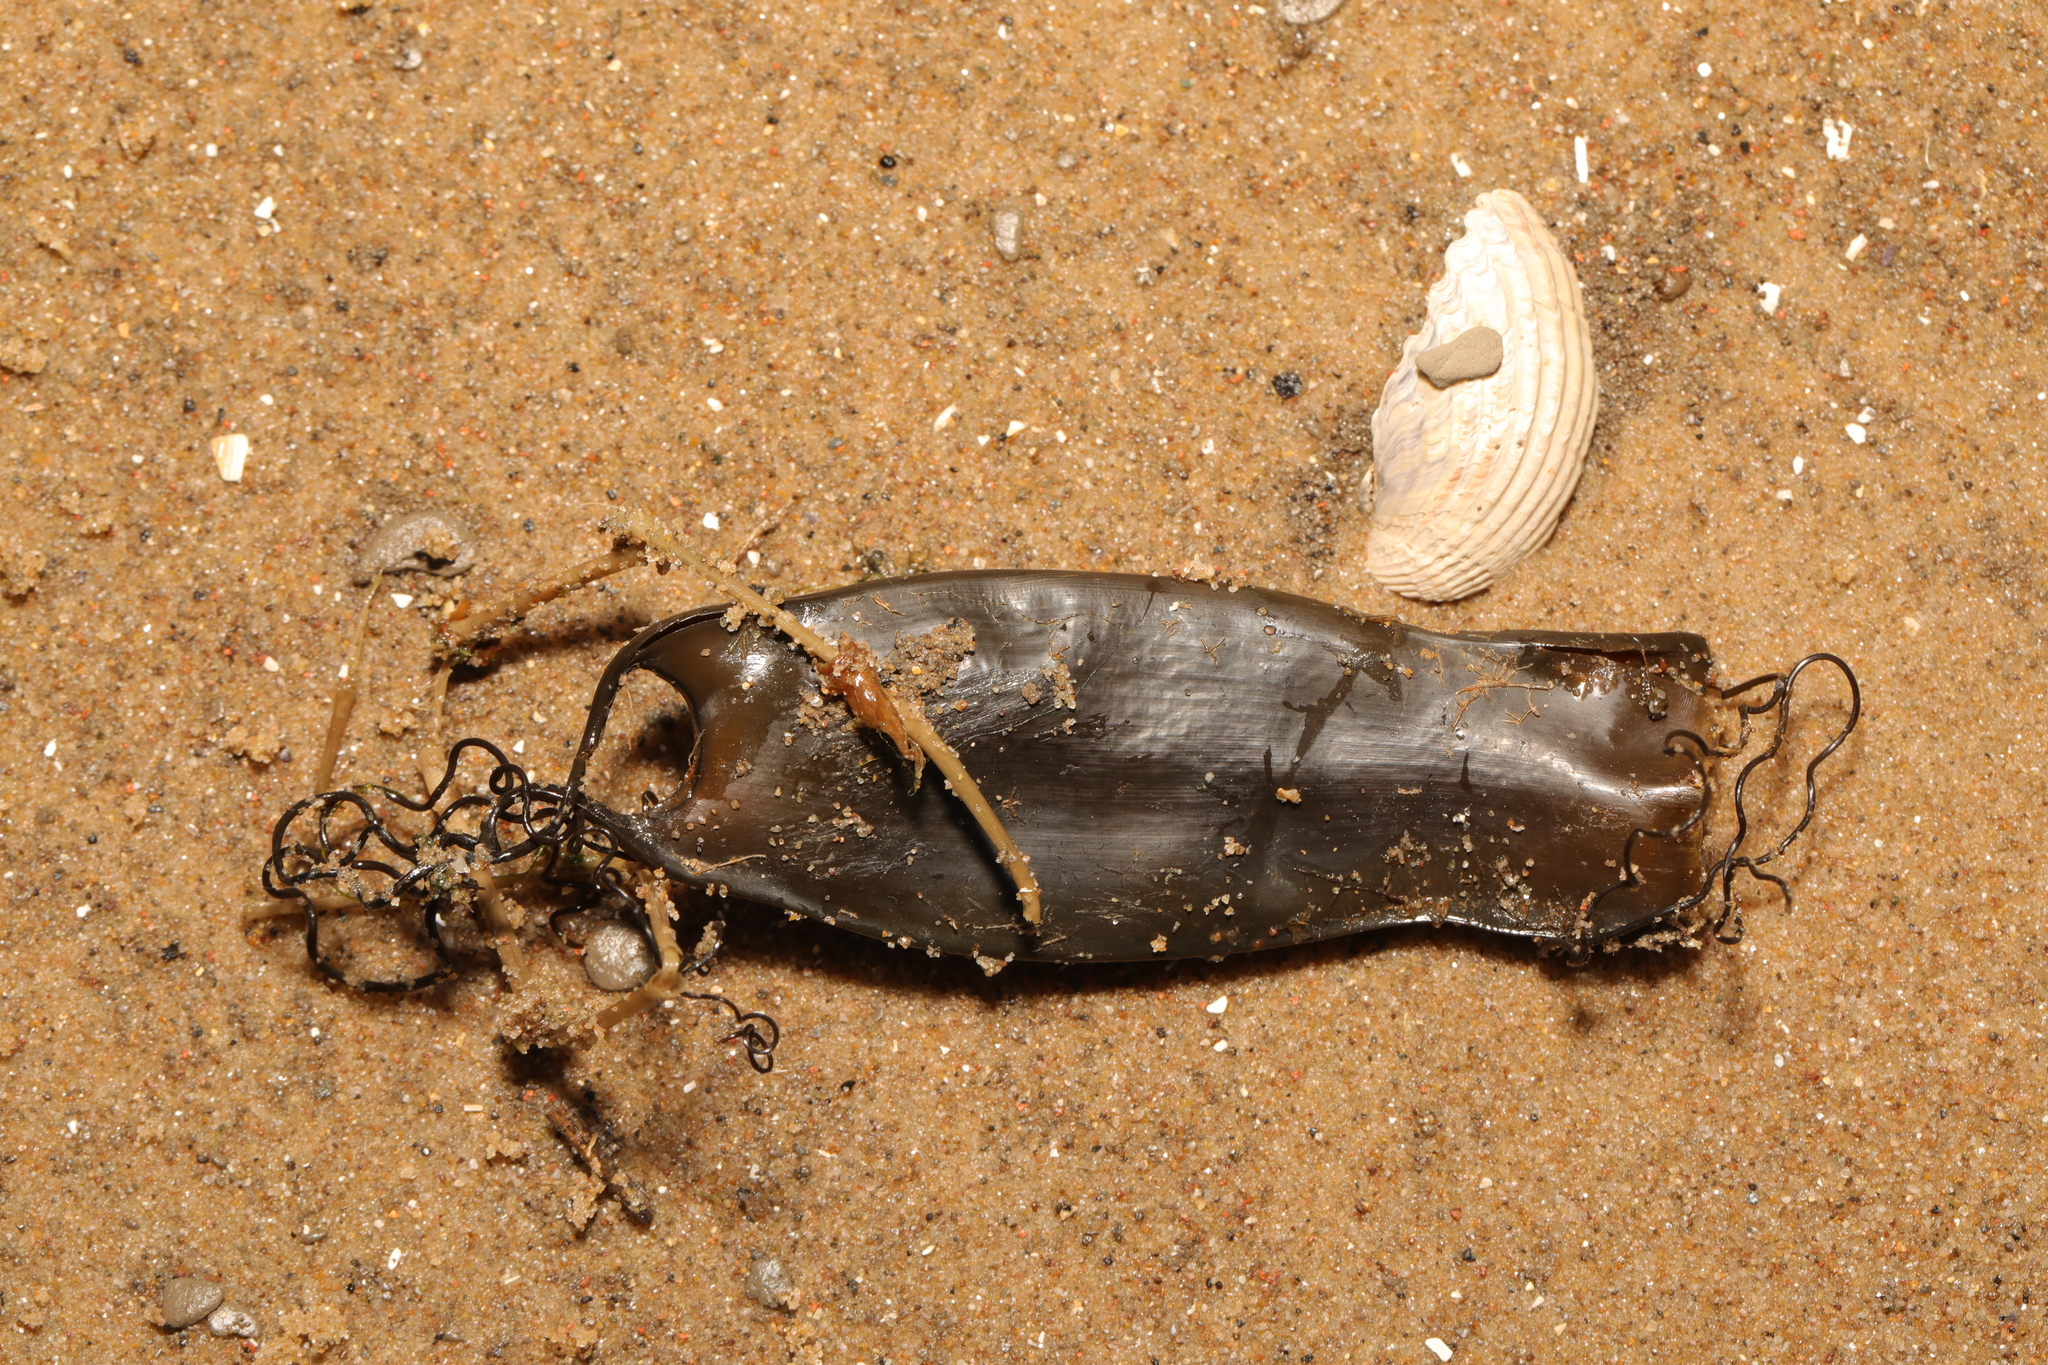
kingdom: Animalia
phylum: Chordata
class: Elasmobranchii
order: Carcharhiniformes
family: Scyliorhinidae
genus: Scyliorhinus
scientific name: Scyliorhinus canicula
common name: Lesser spotted dogfish
